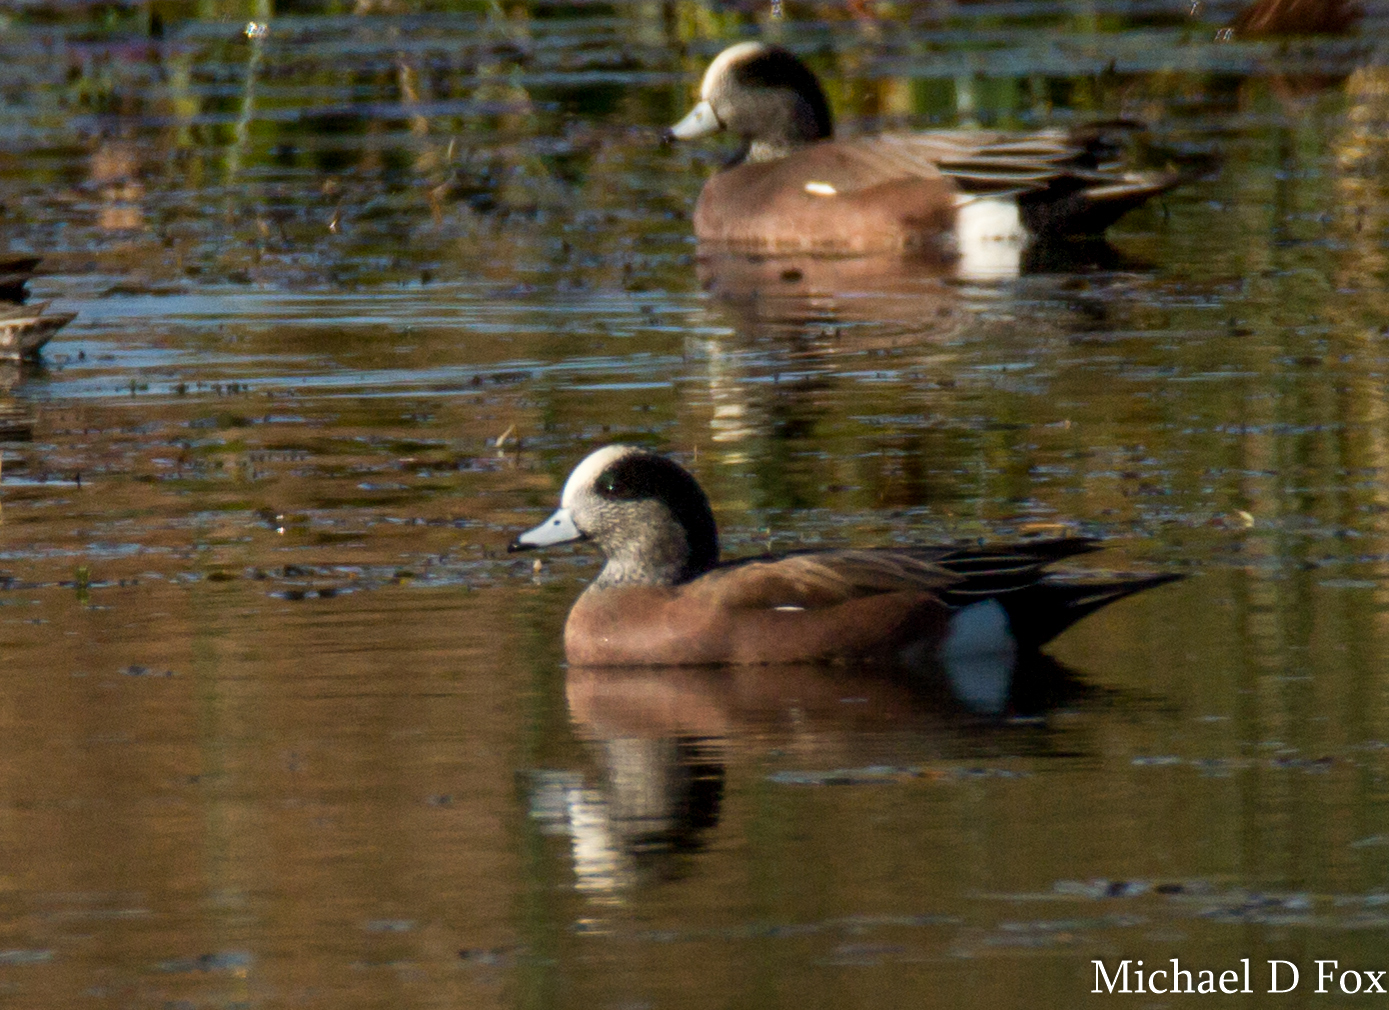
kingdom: Animalia
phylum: Chordata
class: Aves
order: Anseriformes
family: Anatidae
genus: Mareca
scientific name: Mareca americana
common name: American wigeon
